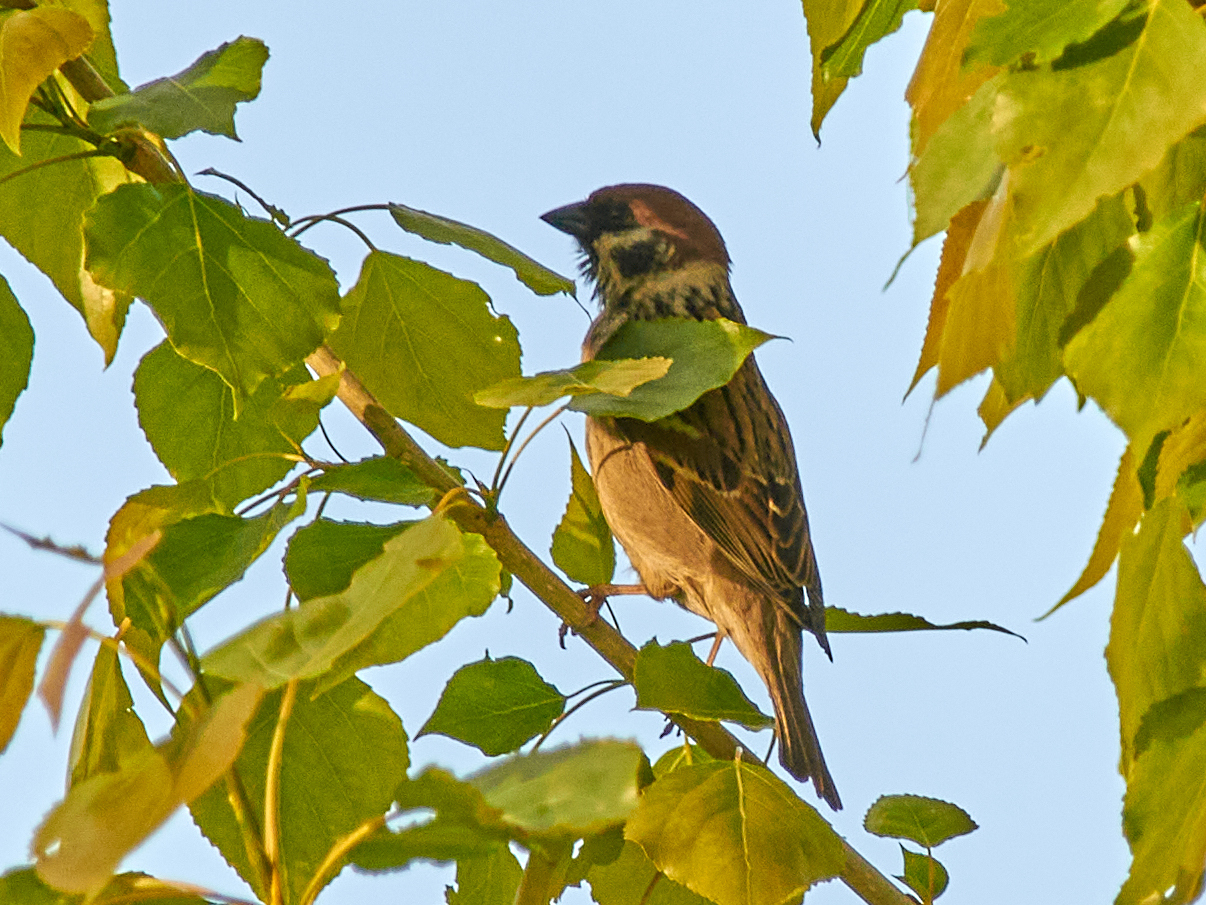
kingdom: Animalia
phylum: Chordata
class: Aves
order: Passeriformes
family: Passeridae
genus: Passer
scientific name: Passer montanus
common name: Eurasian tree sparrow
